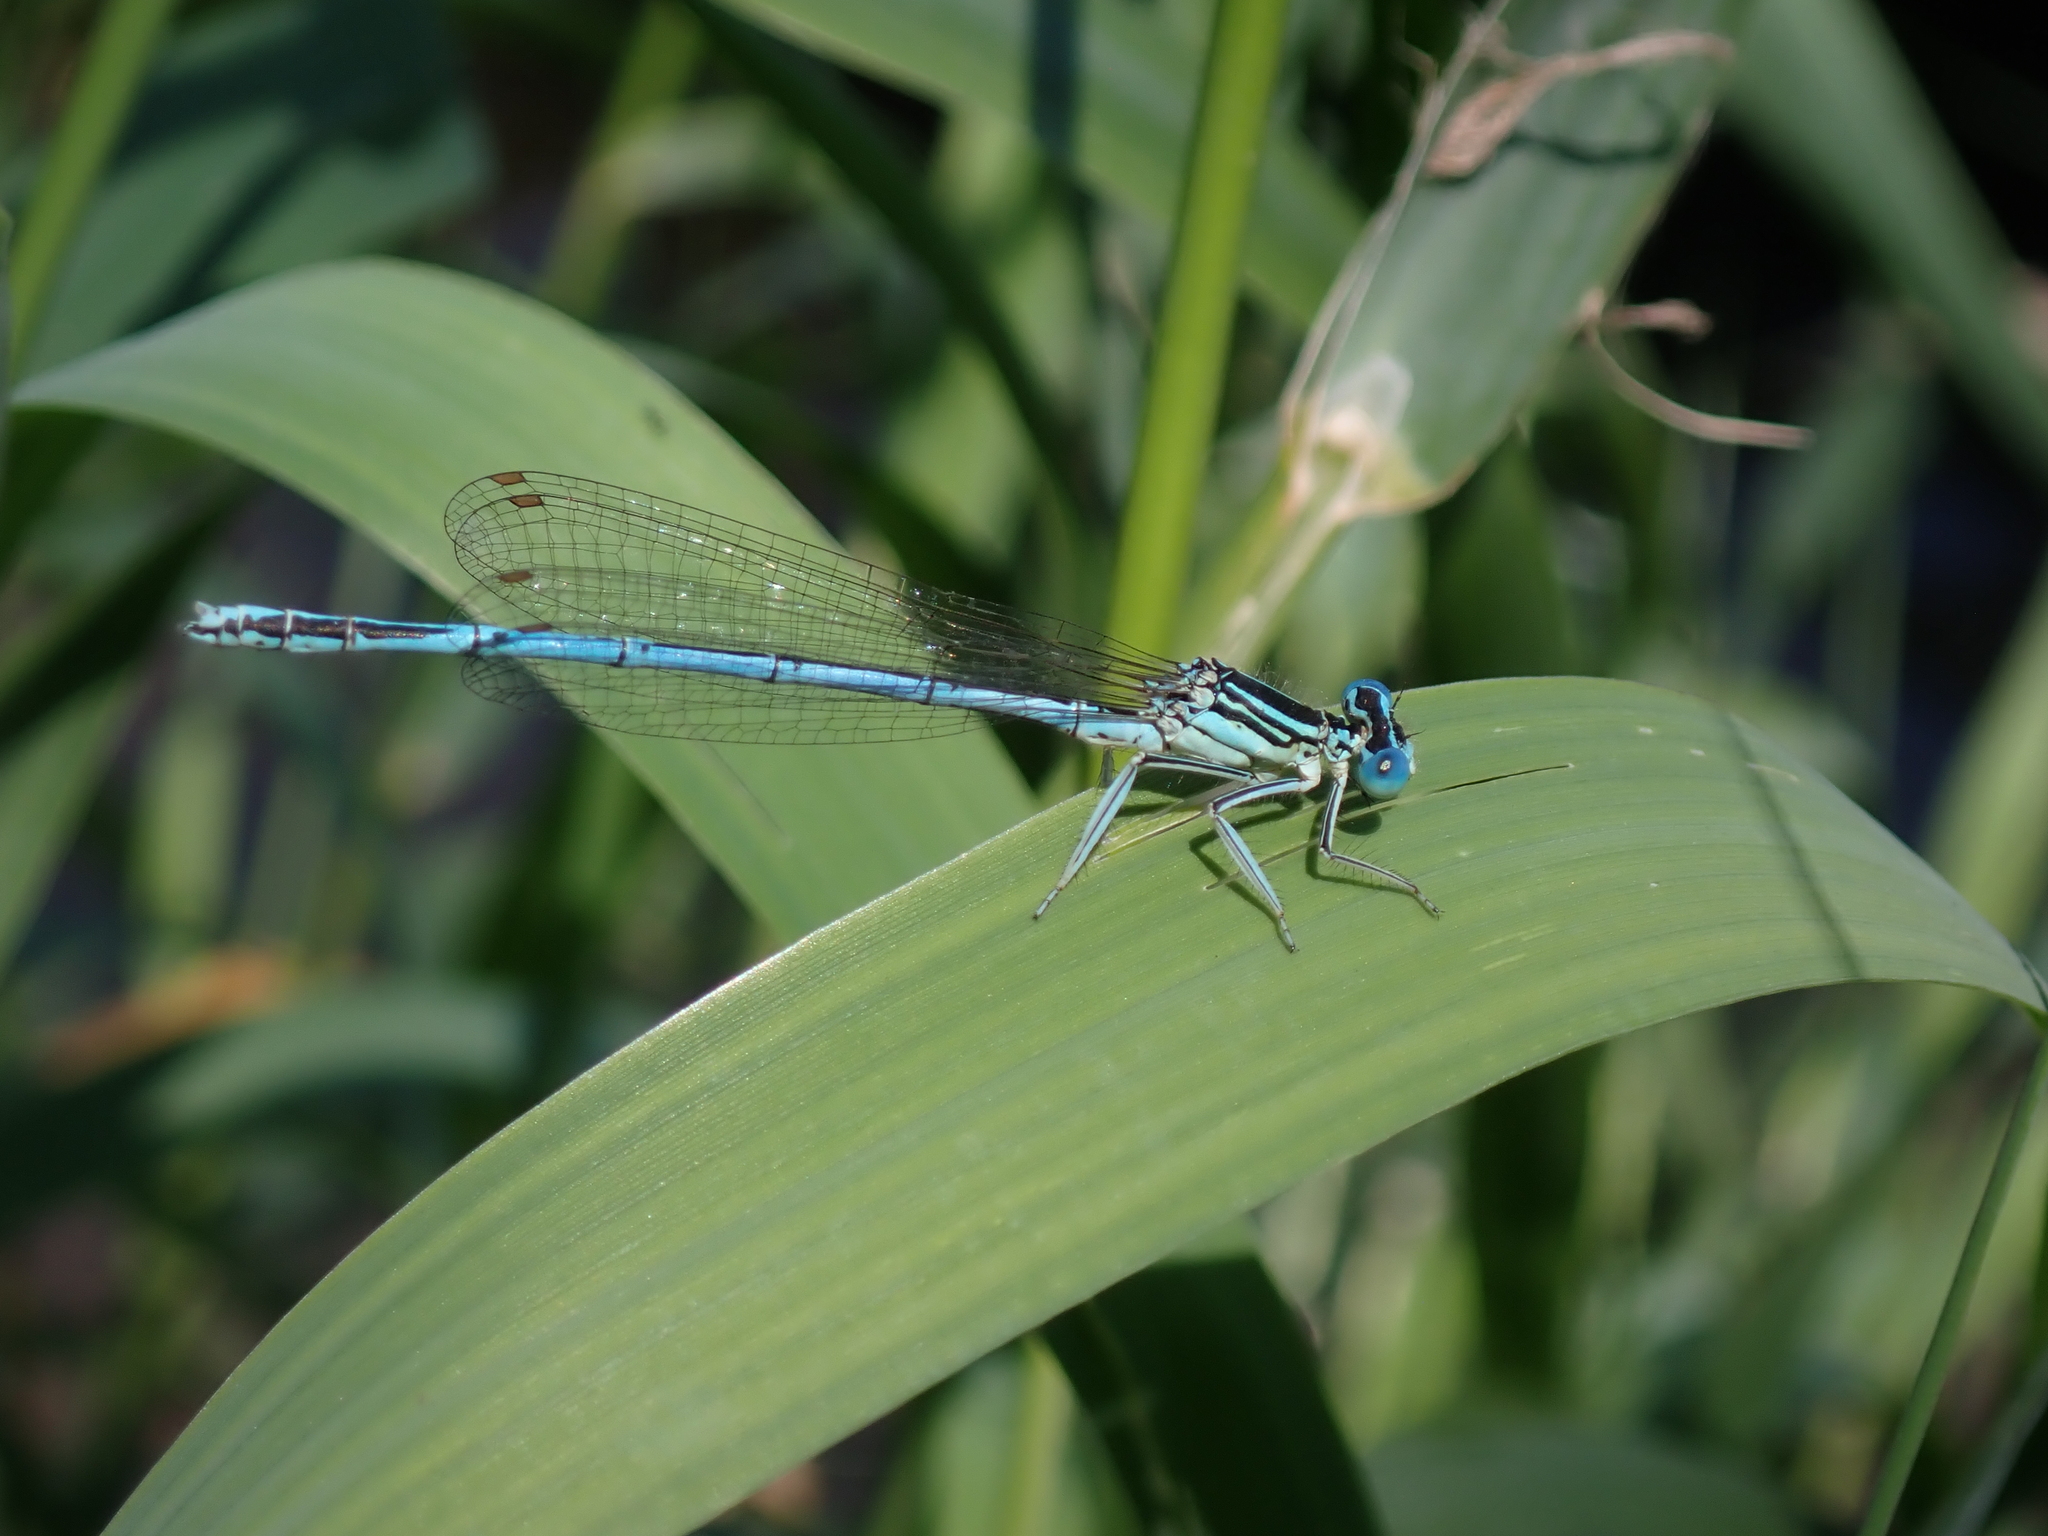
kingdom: Animalia
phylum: Arthropoda
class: Insecta
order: Odonata
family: Platycnemididae
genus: Platycnemis
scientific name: Platycnemis pennipes
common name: White-legged damselfly
